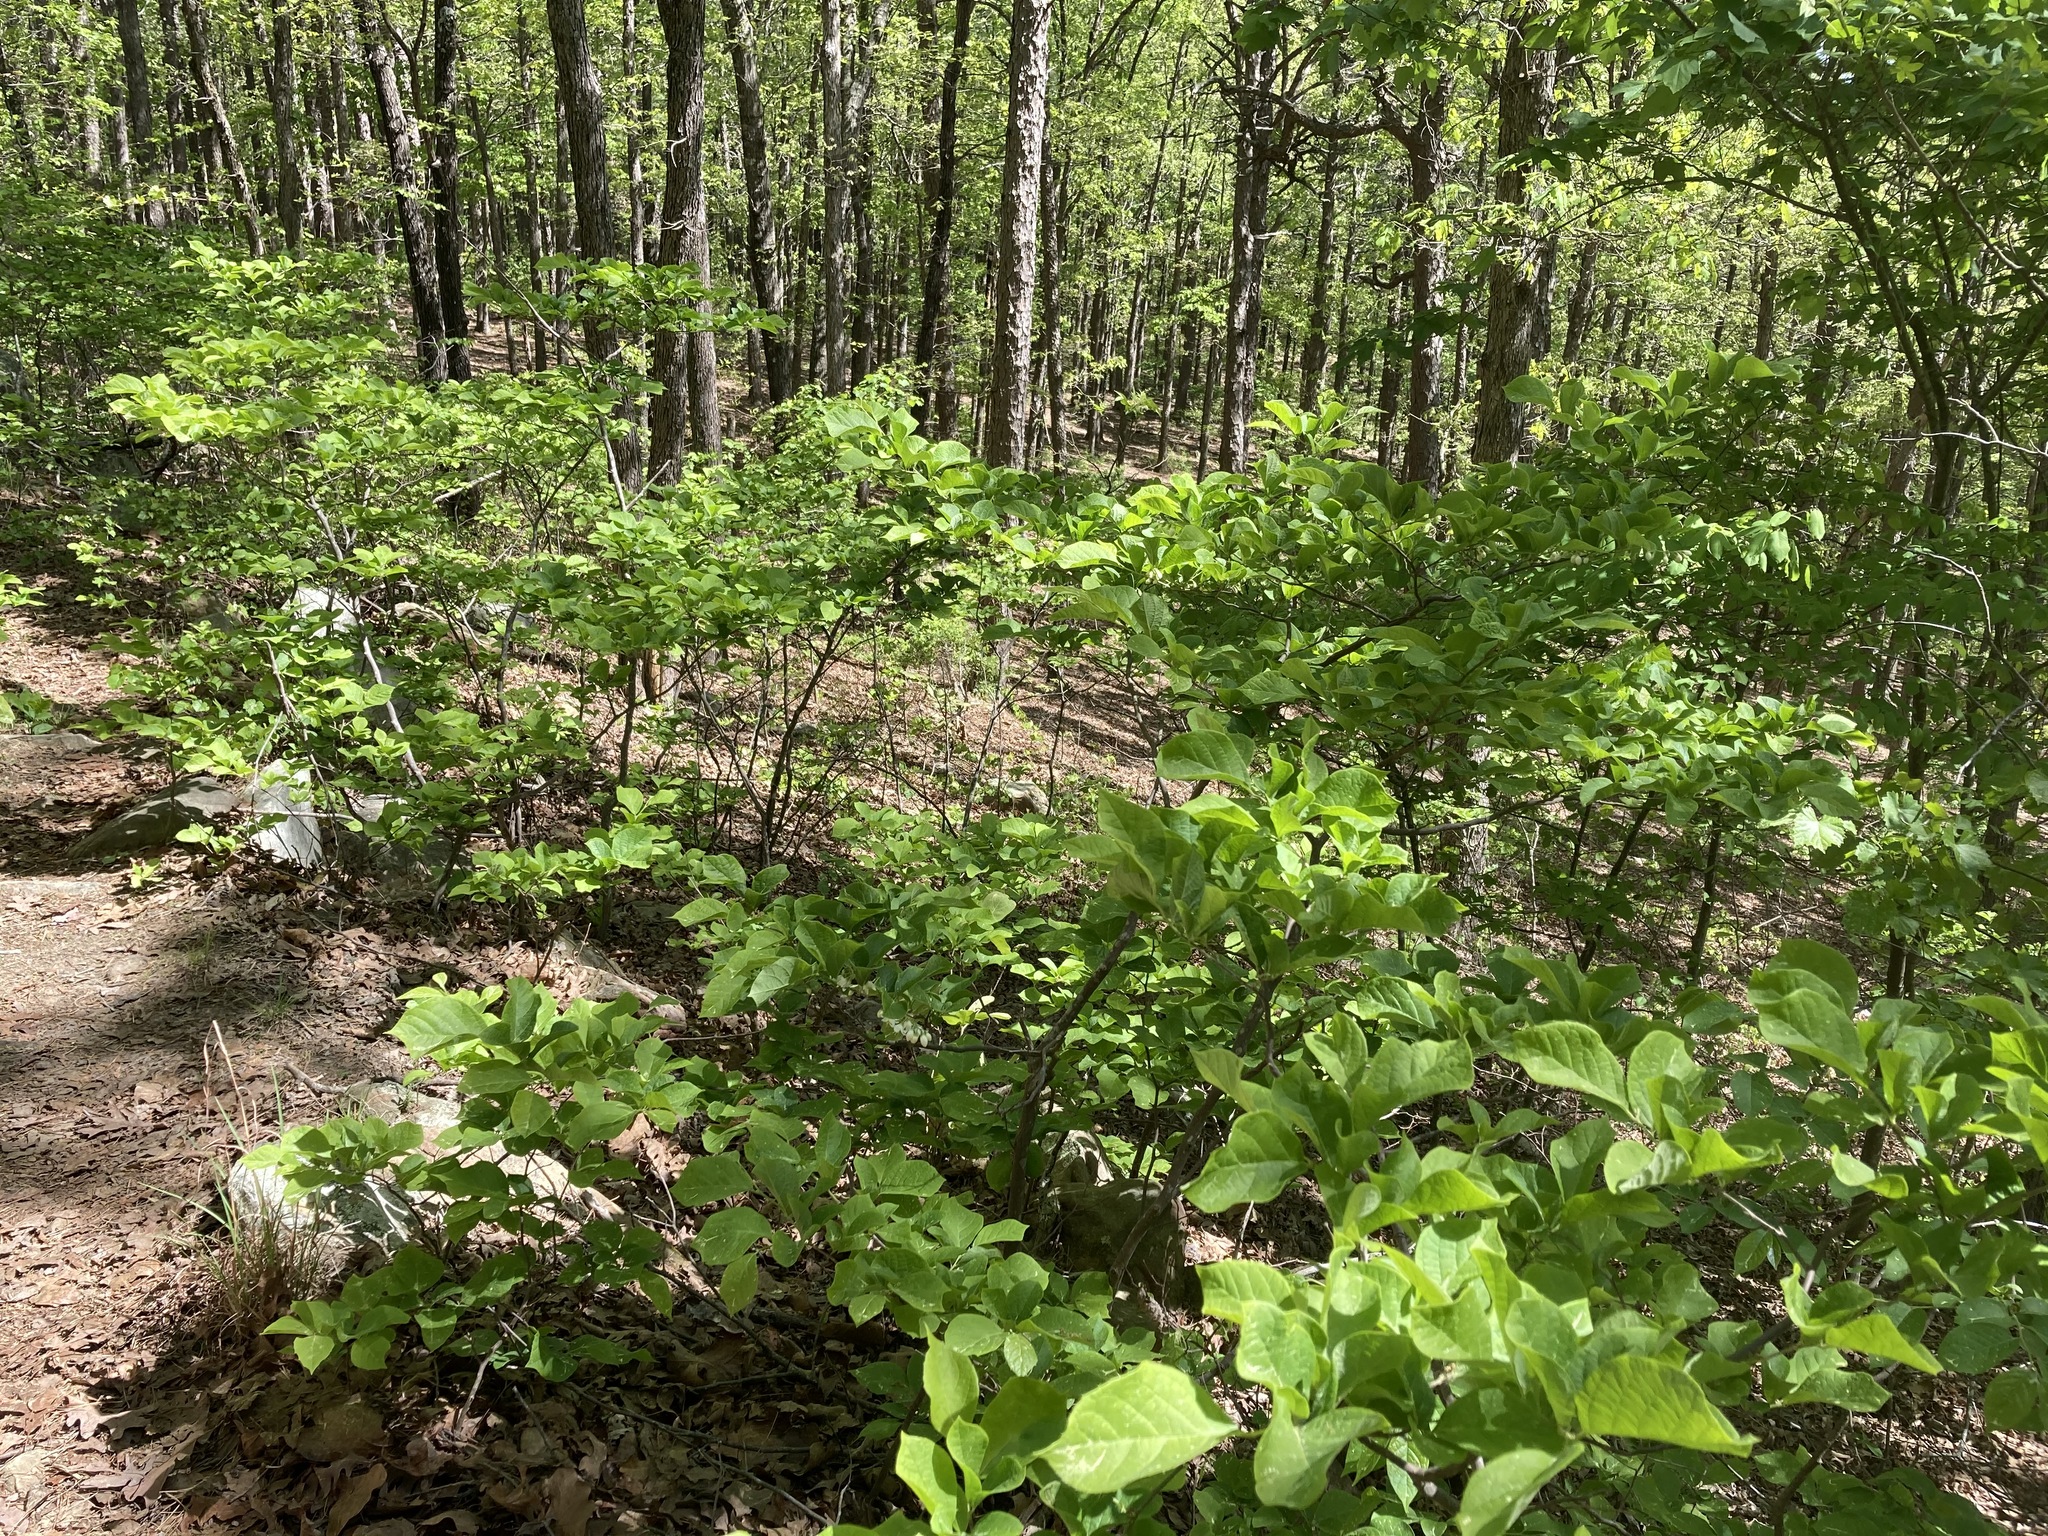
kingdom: Plantae
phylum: Tracheophyta
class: Magnoliopsida
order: Ericales
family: Styracaceae
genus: Styrax
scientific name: Styrax grandifolius
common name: Big-leaf snowbell
